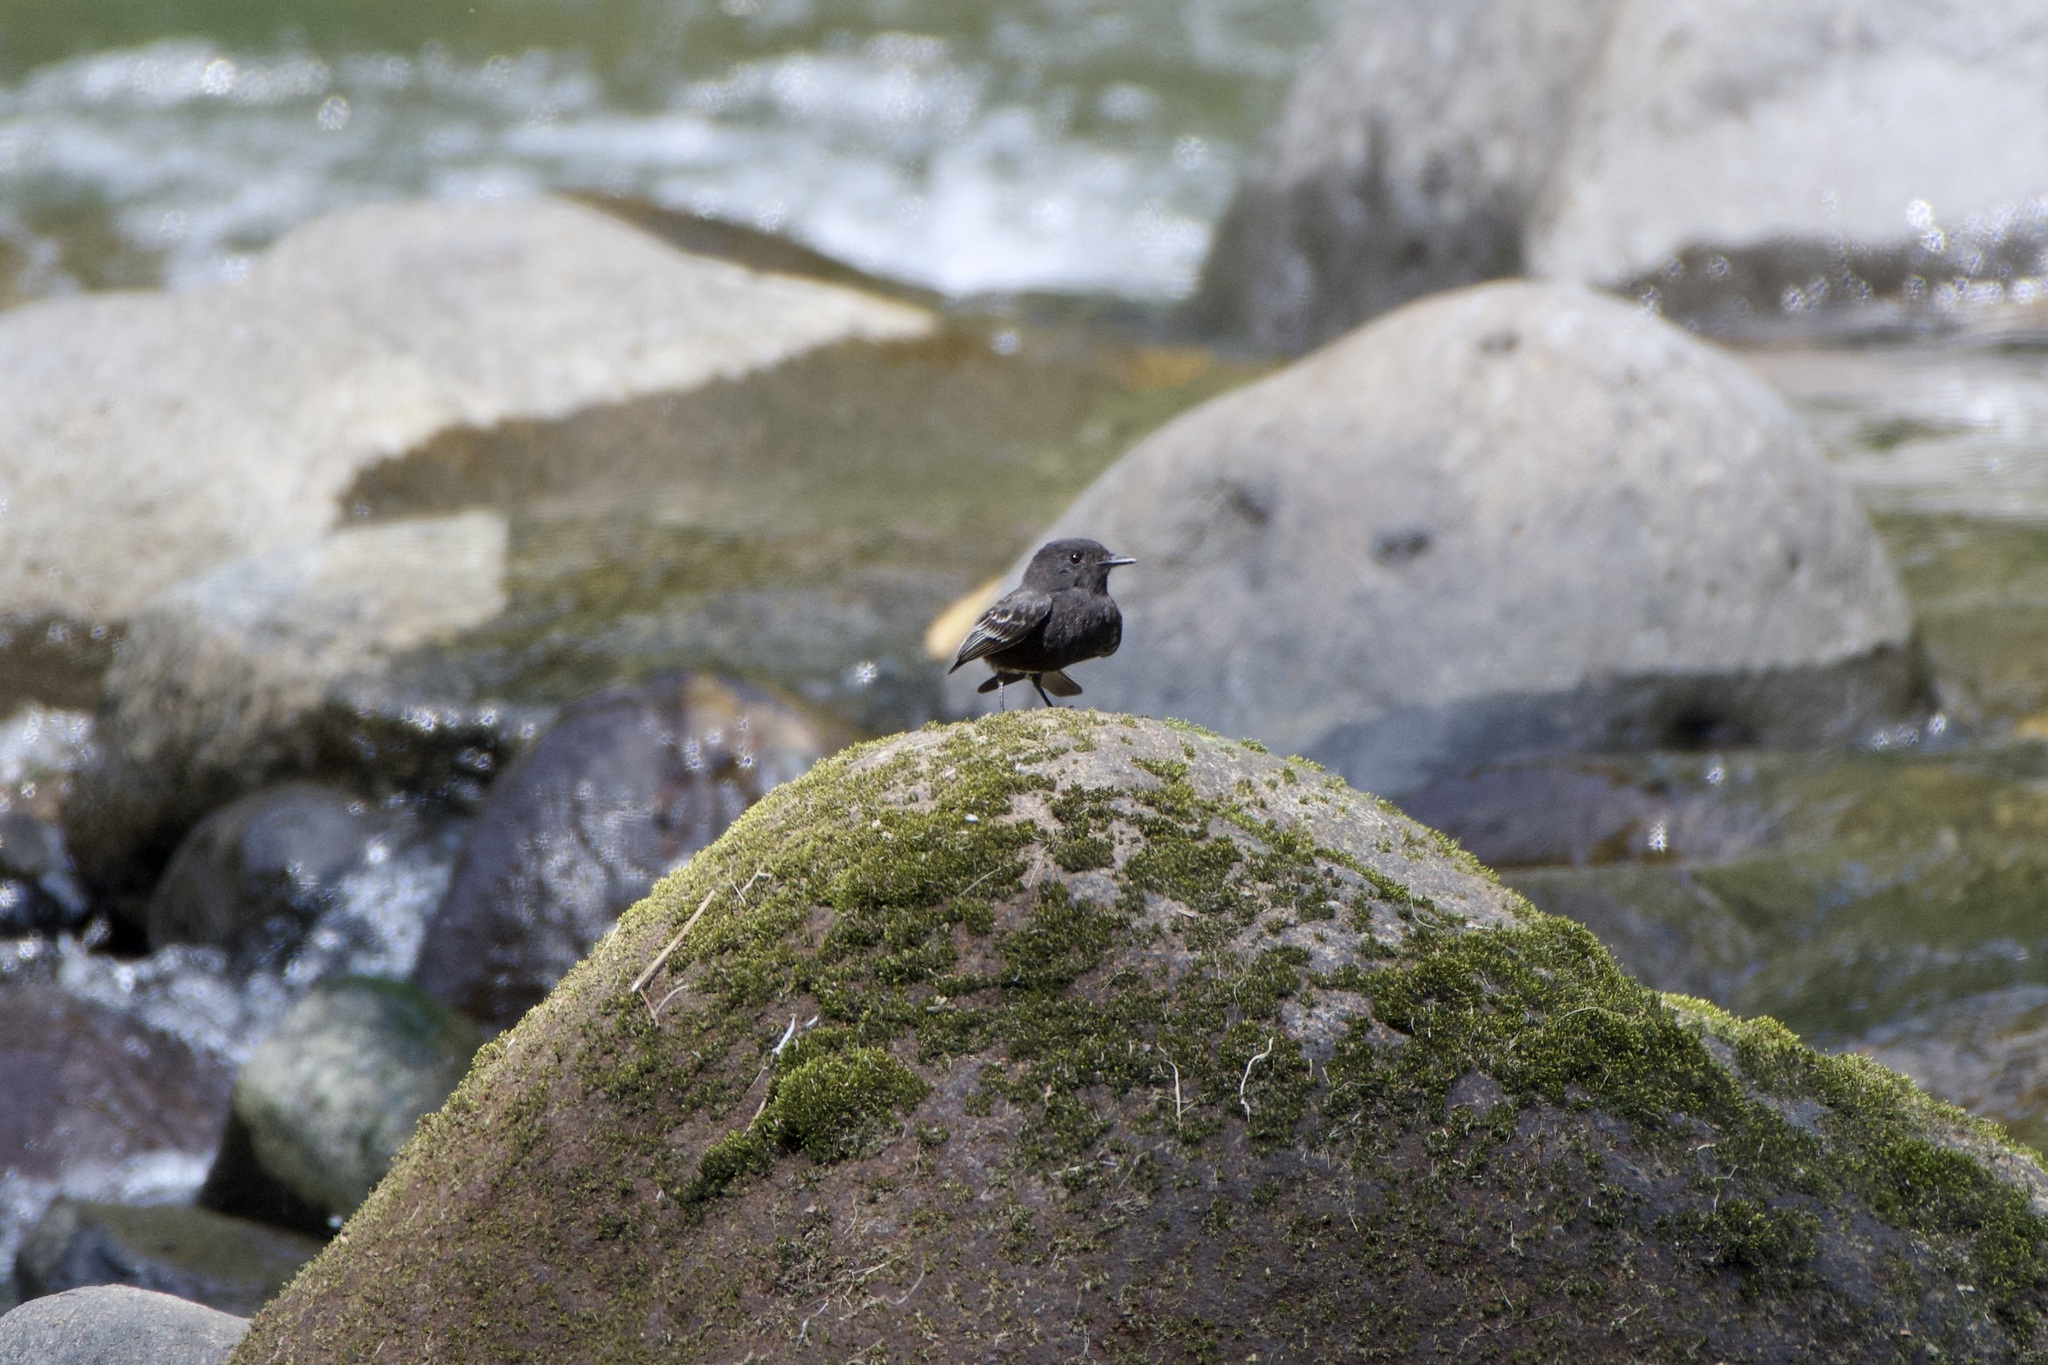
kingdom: Animalia
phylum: Chordata
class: Aves
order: Passeriformes
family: Tyrannidae
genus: Sayornis
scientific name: Sayornis nigricans
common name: Black phoebe
